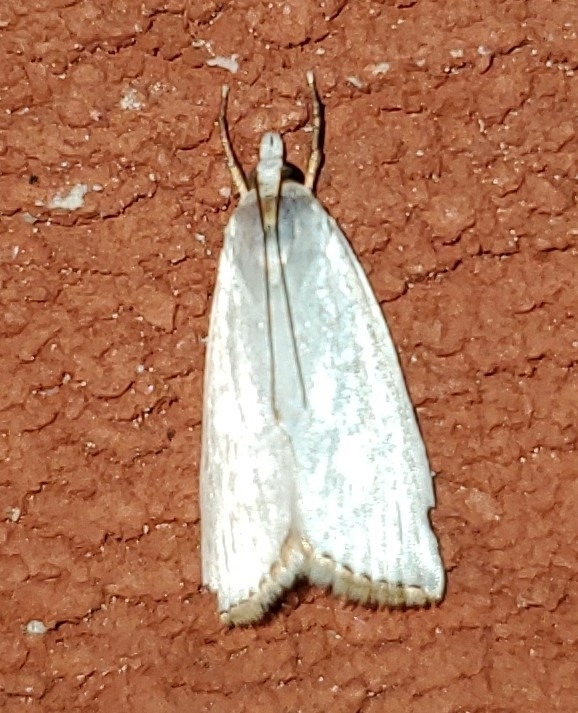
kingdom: Animalia
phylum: Arthropoda
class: Insecta
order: Lepidoptera
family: Crambidae
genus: Argyria
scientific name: Argyria nivalis
